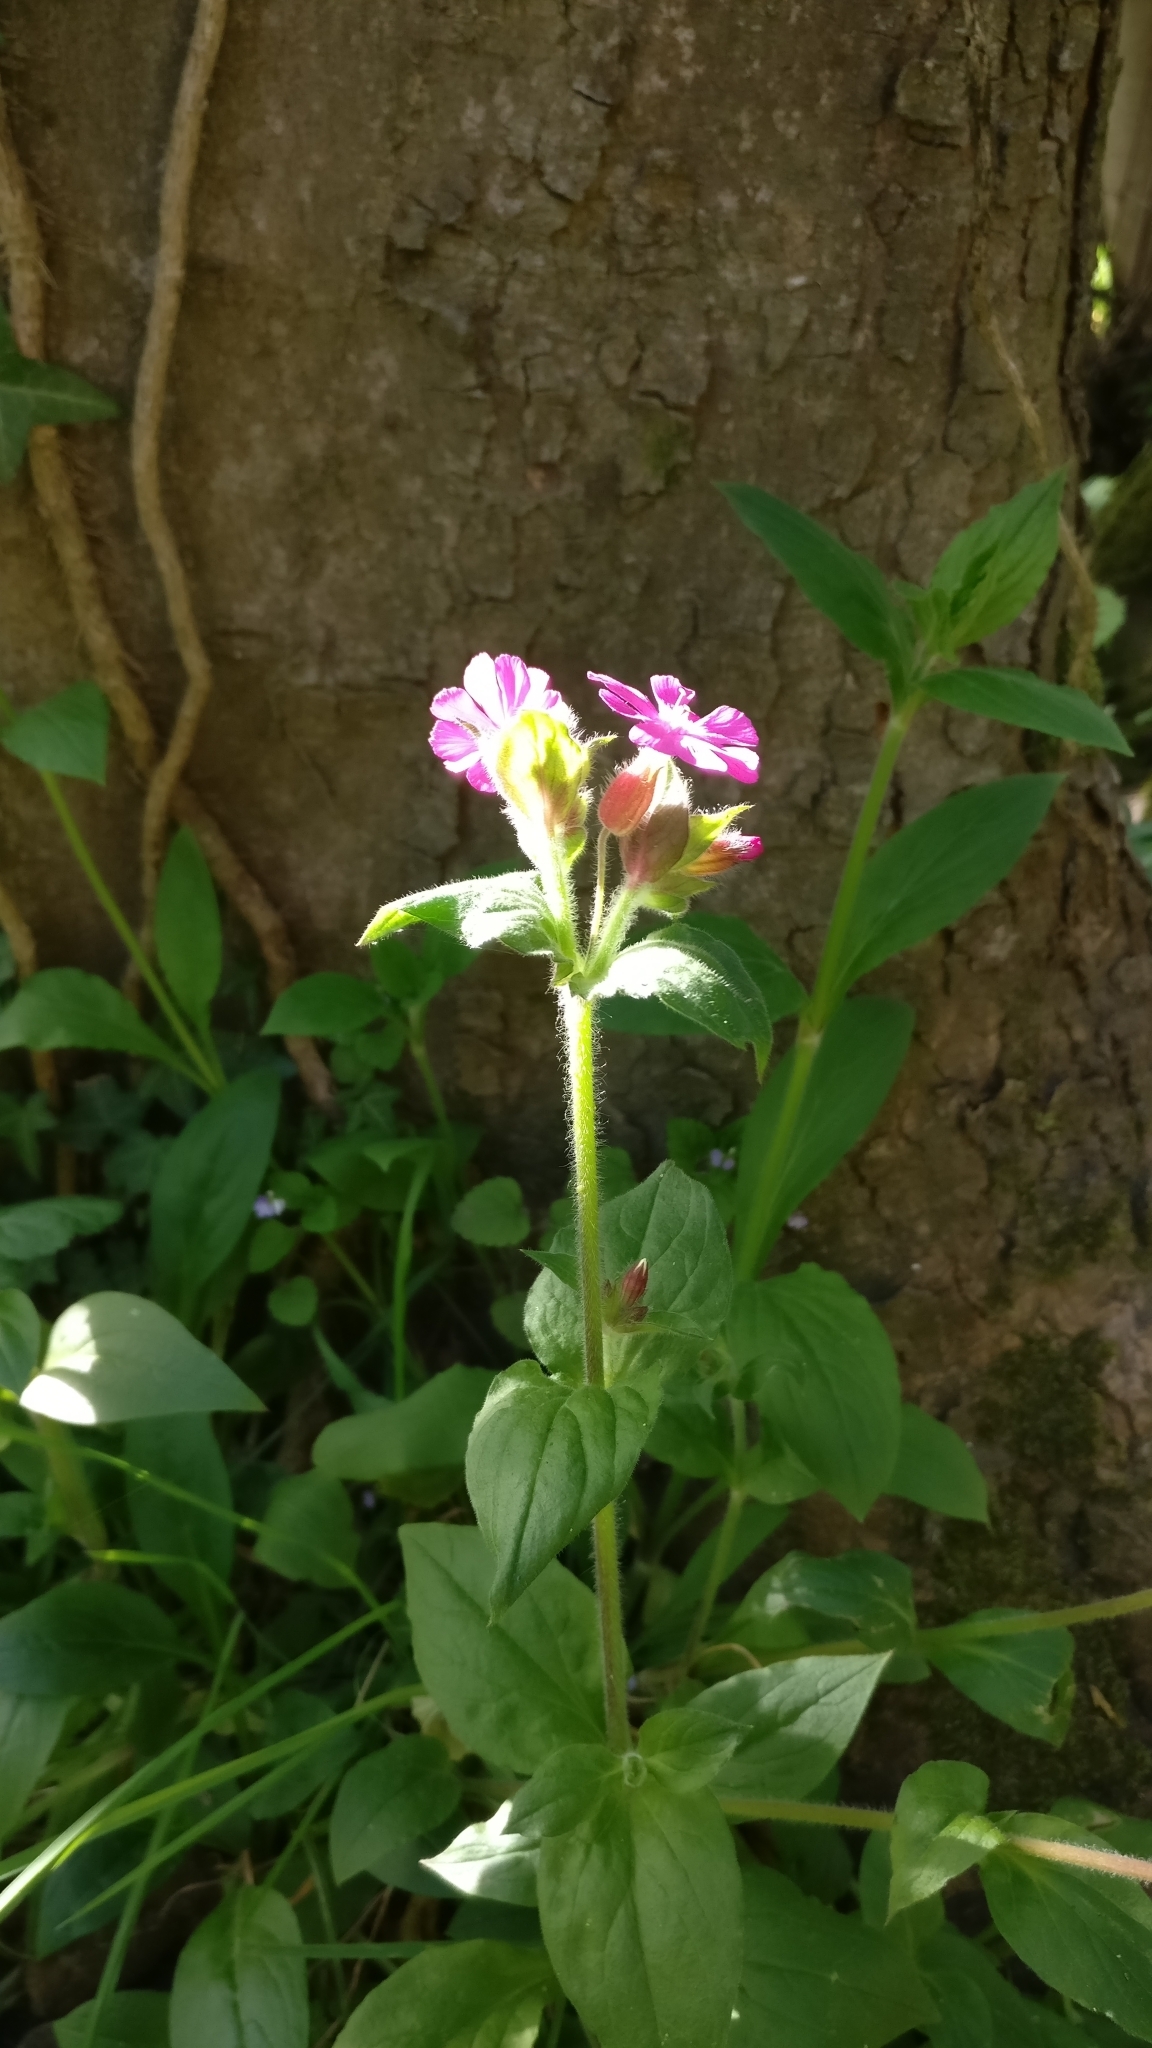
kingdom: Plantae
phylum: Tracheophyta
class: Magnoliopsida
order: Caryophyllales
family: Caryophyllaceae
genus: Silene
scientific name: Silene dioica
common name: Red campion
